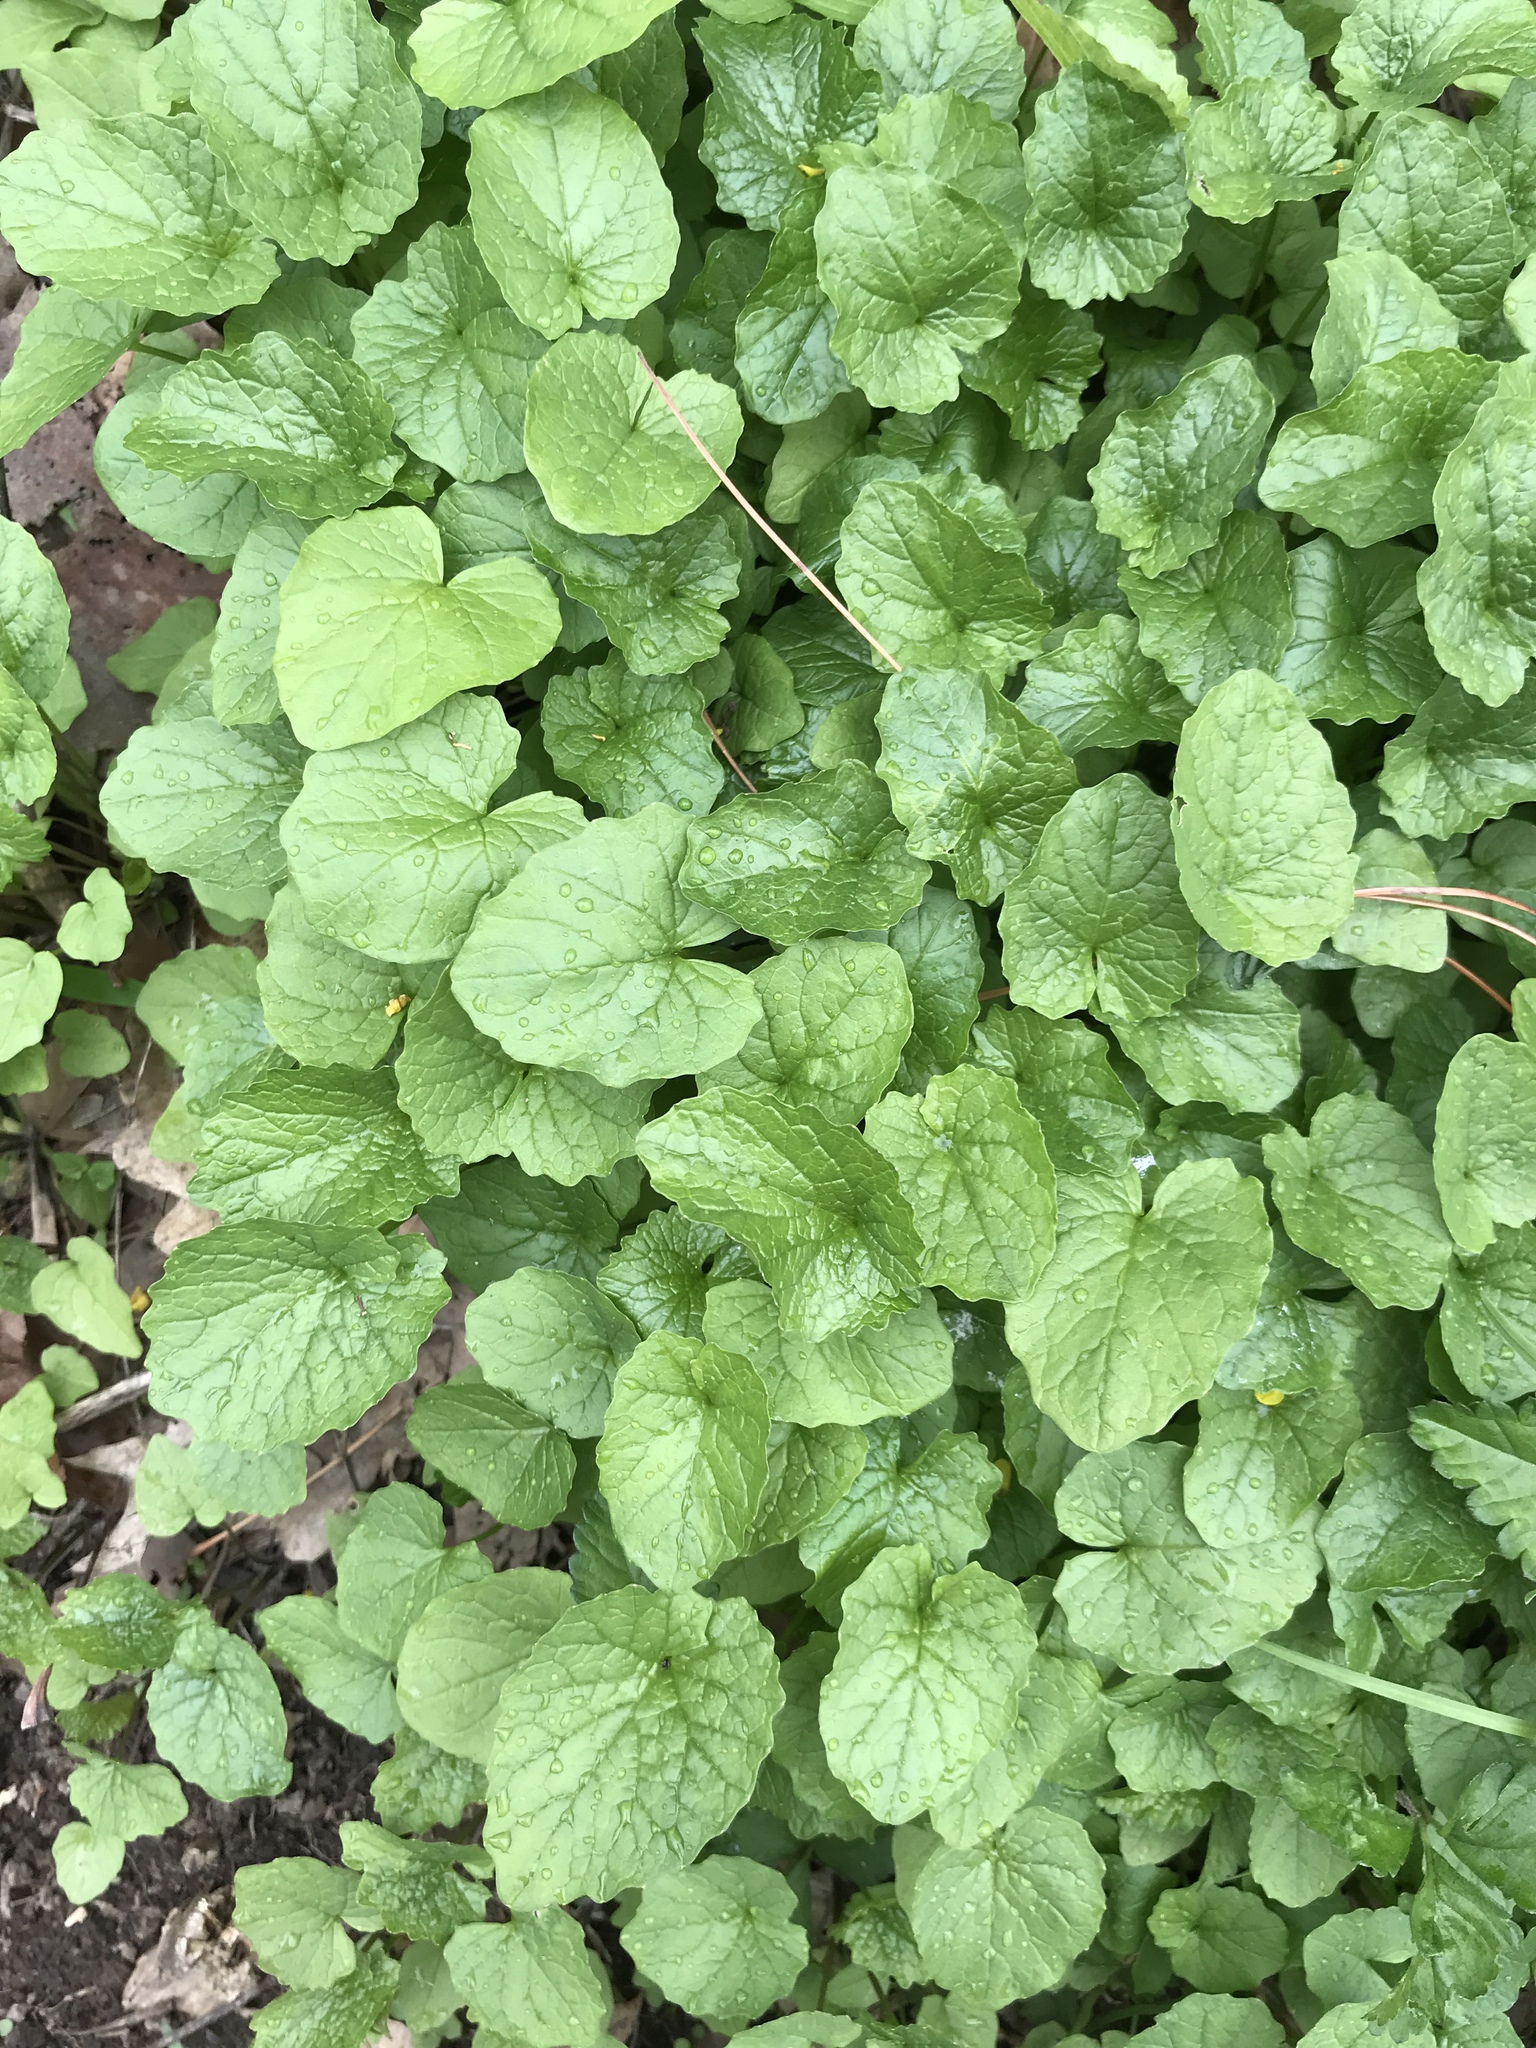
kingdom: Plantae
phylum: Tracheophyta
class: Magnoliopsida
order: Brassicales
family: Brassicaceae
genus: Alliaria
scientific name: Alliaria petiolata
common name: Garlic mustard
